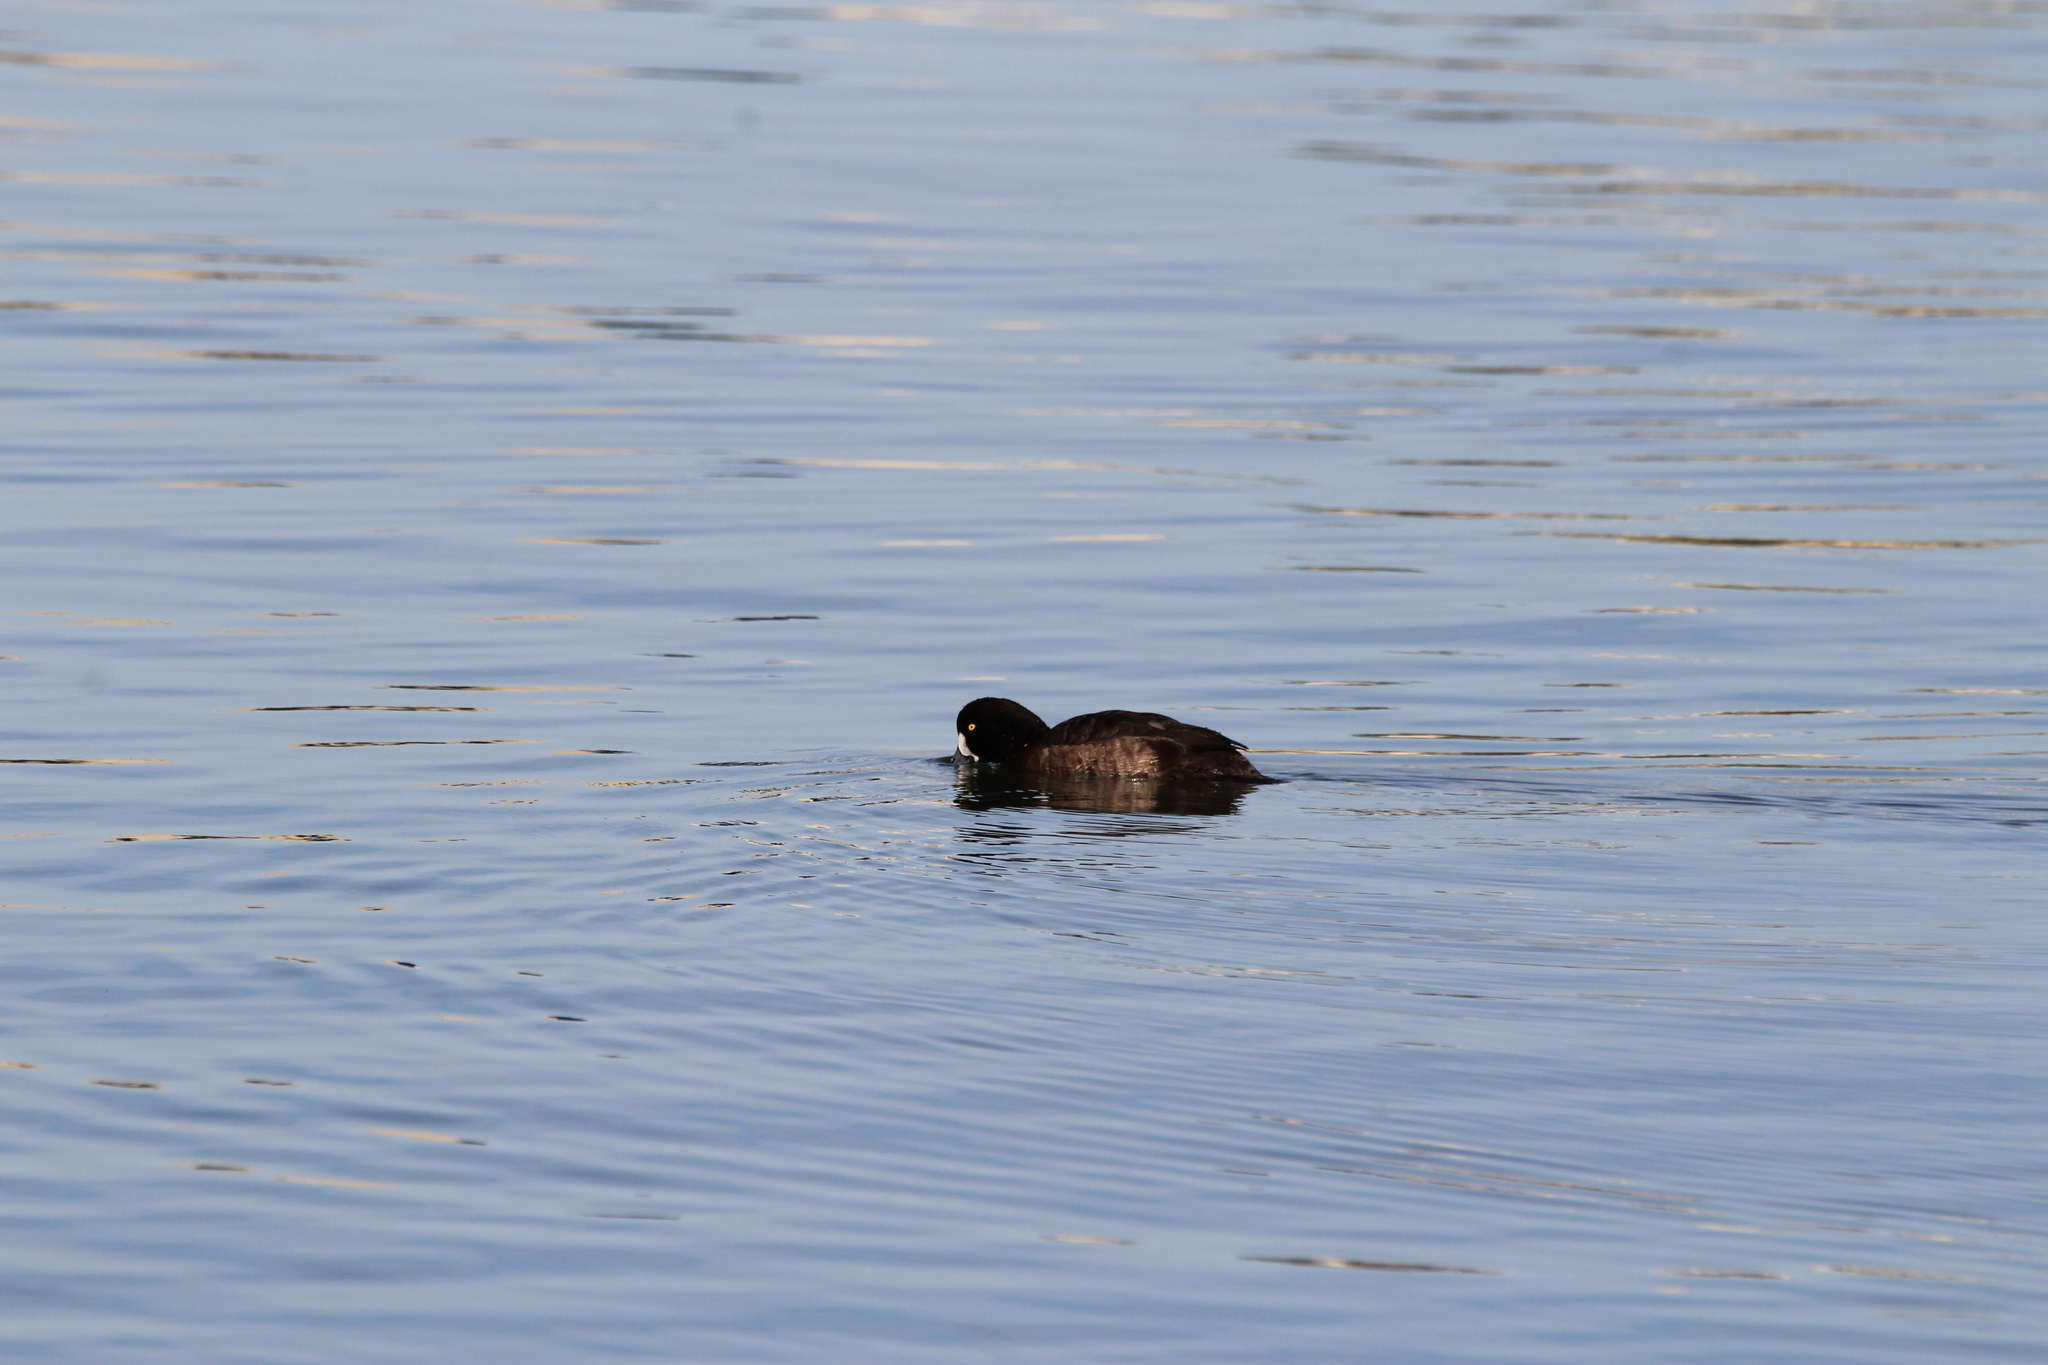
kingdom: Animalia
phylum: Chordata
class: Aves
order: Anseriformes
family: Anatidae
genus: Aythya
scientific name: Aythya marila
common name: Greater scaup
